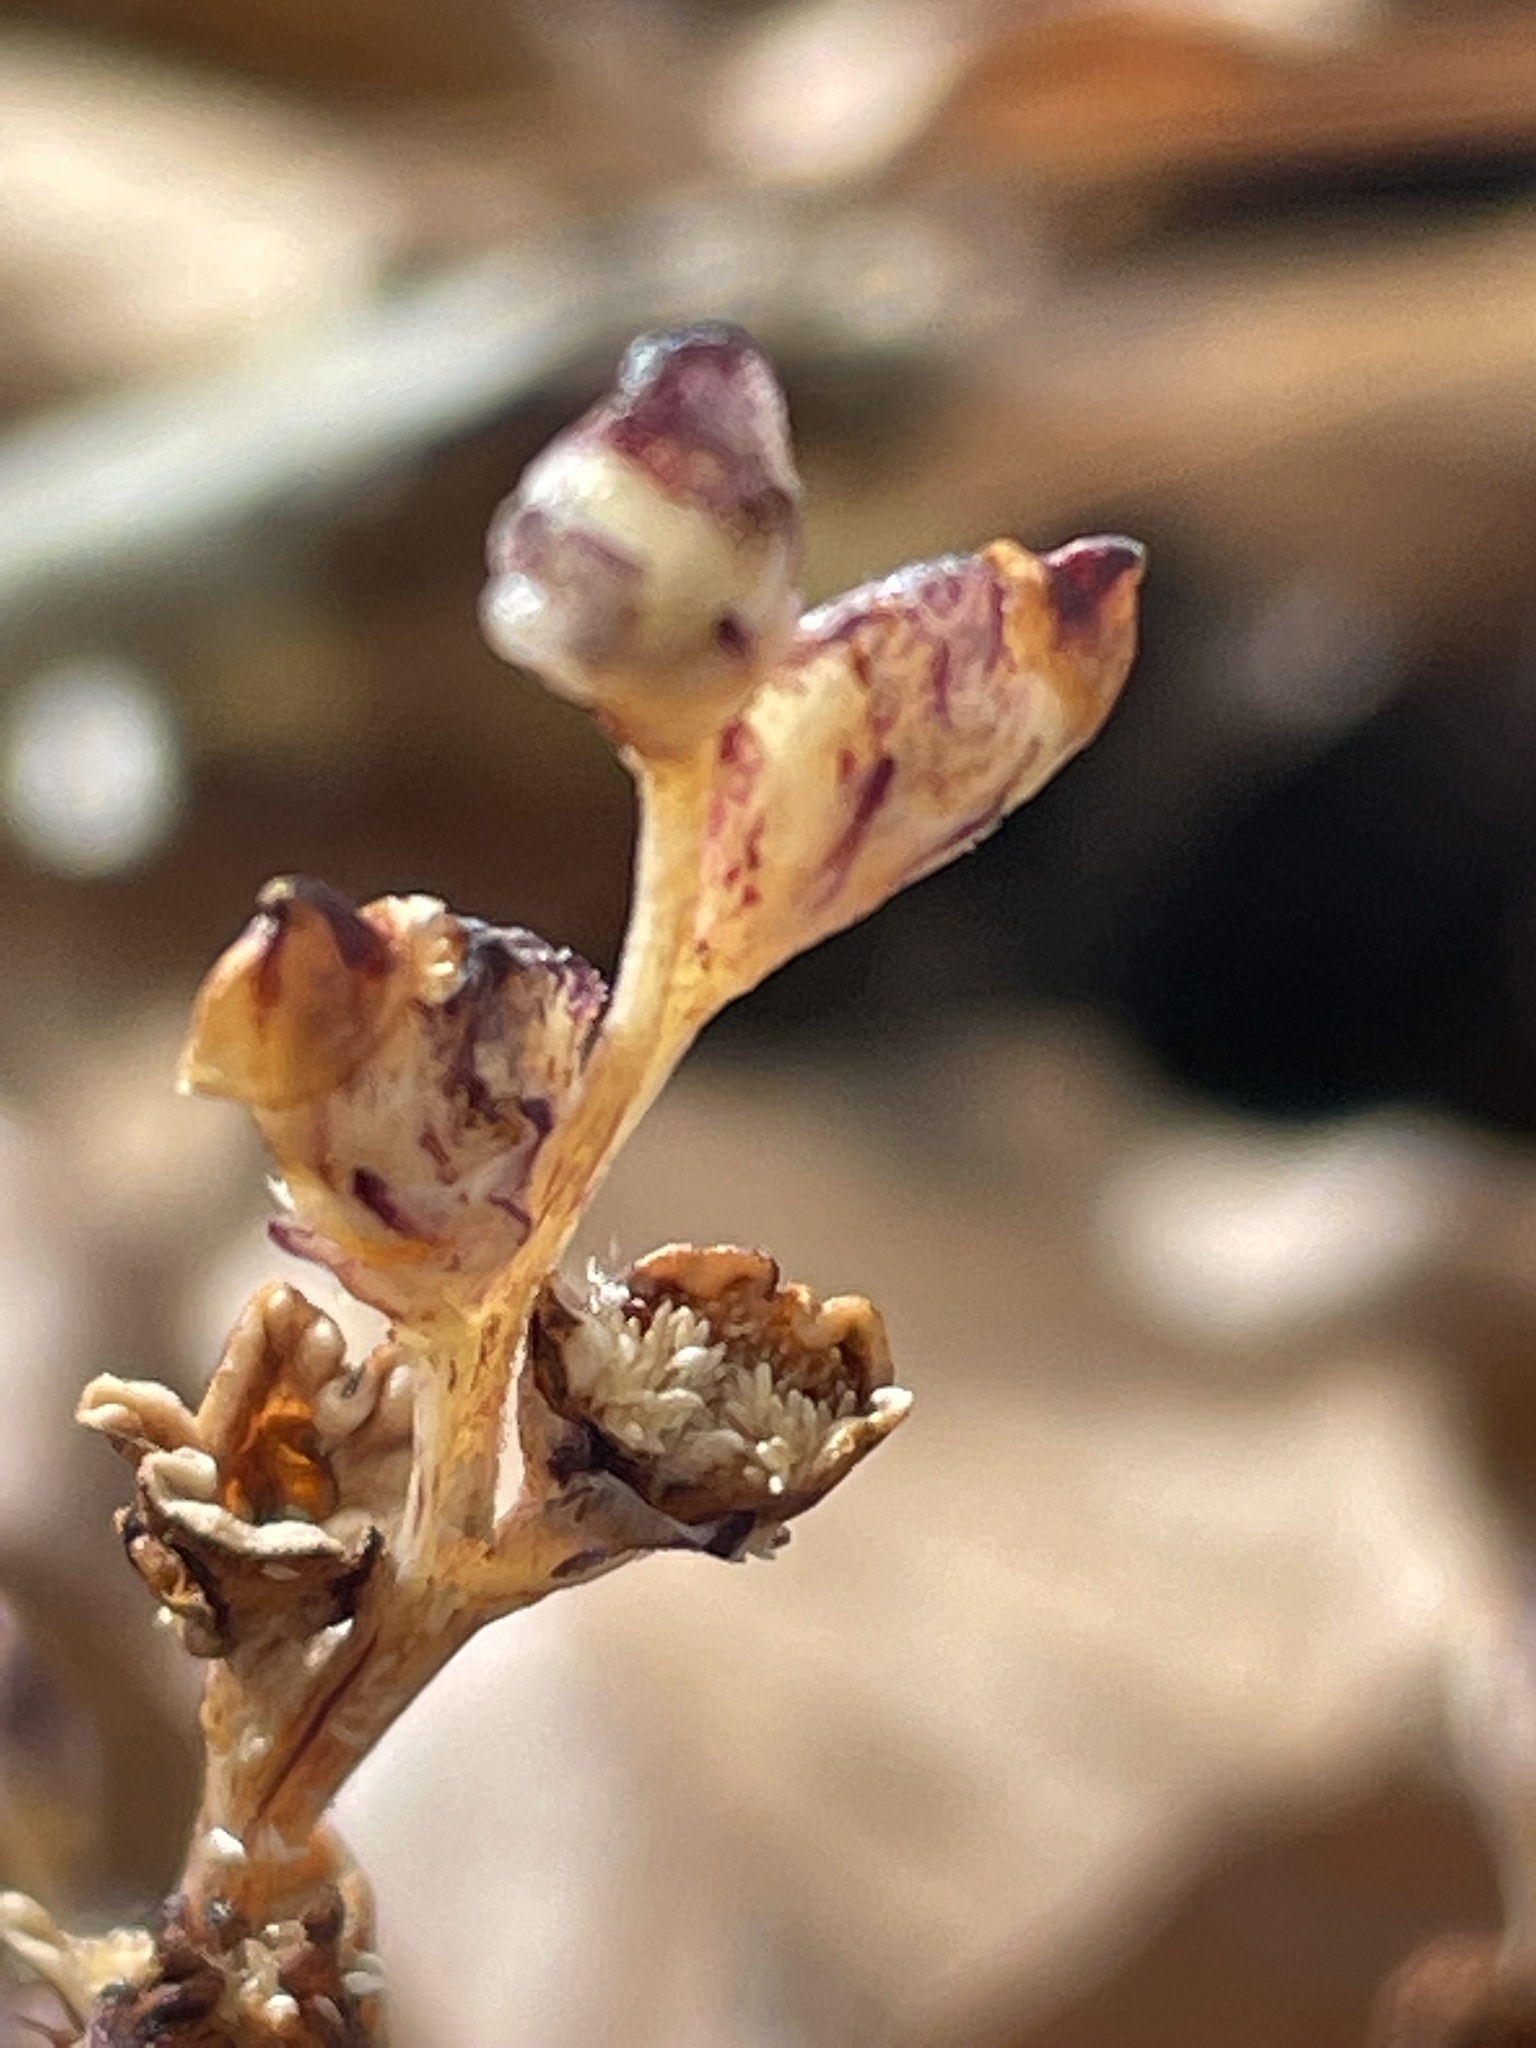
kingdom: Plantae
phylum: Tracheophyta
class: Magnoliopsida
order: Lamiales
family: Orobanchaceae
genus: Epifagus
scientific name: Epifagus virginiana
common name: Beechdrops
